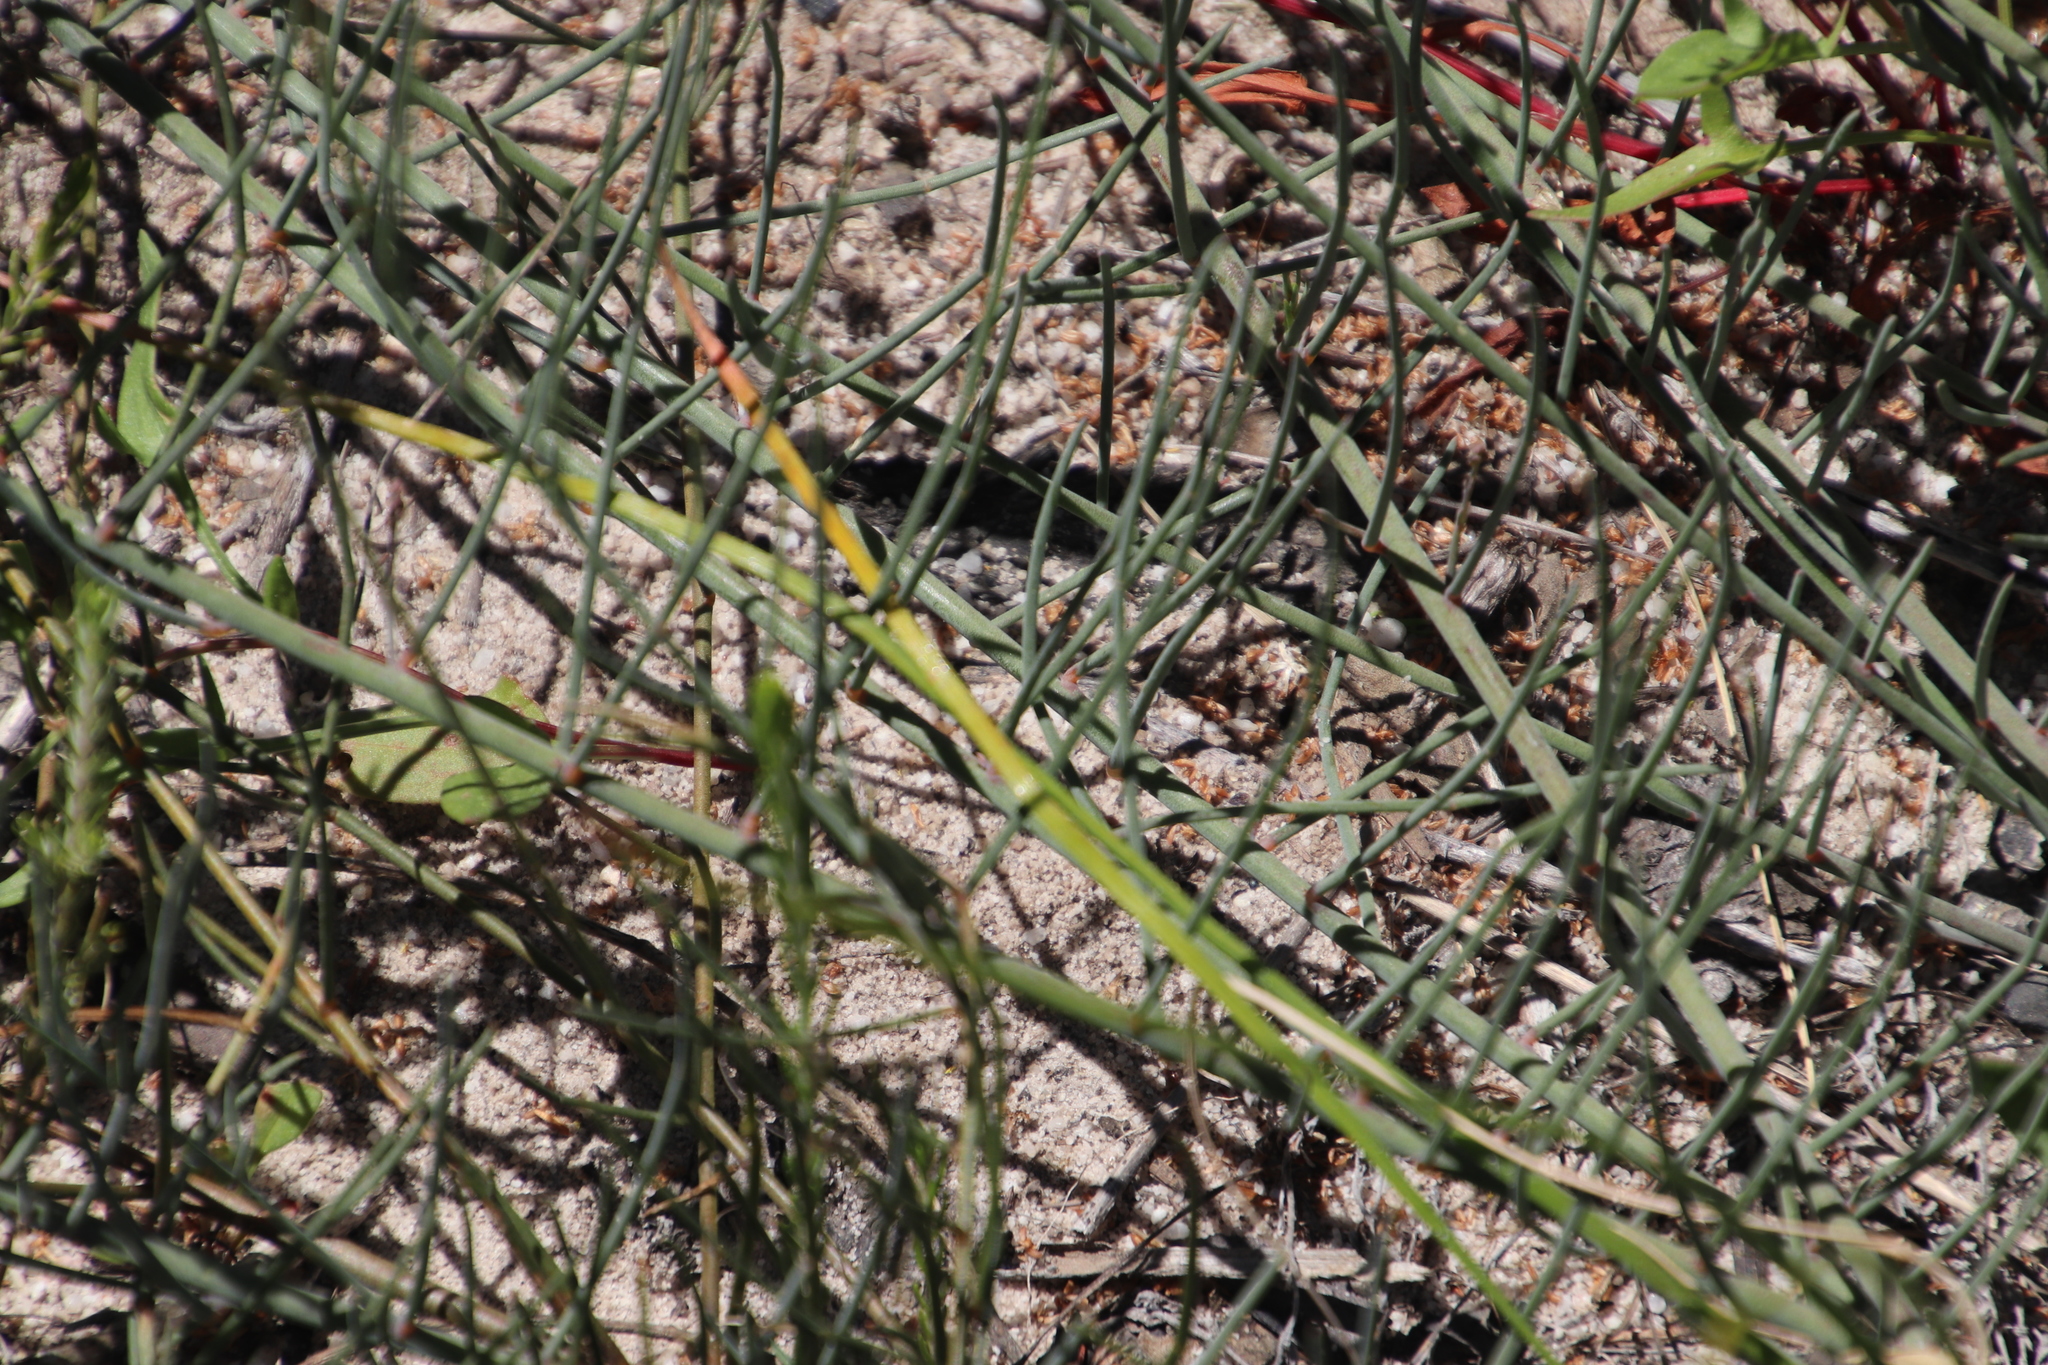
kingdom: Plantae
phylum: Tracheophyta
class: Magnoliopsida
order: Fabales
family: Fabaceae
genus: Lebeckia
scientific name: Lebeckia contaminata
